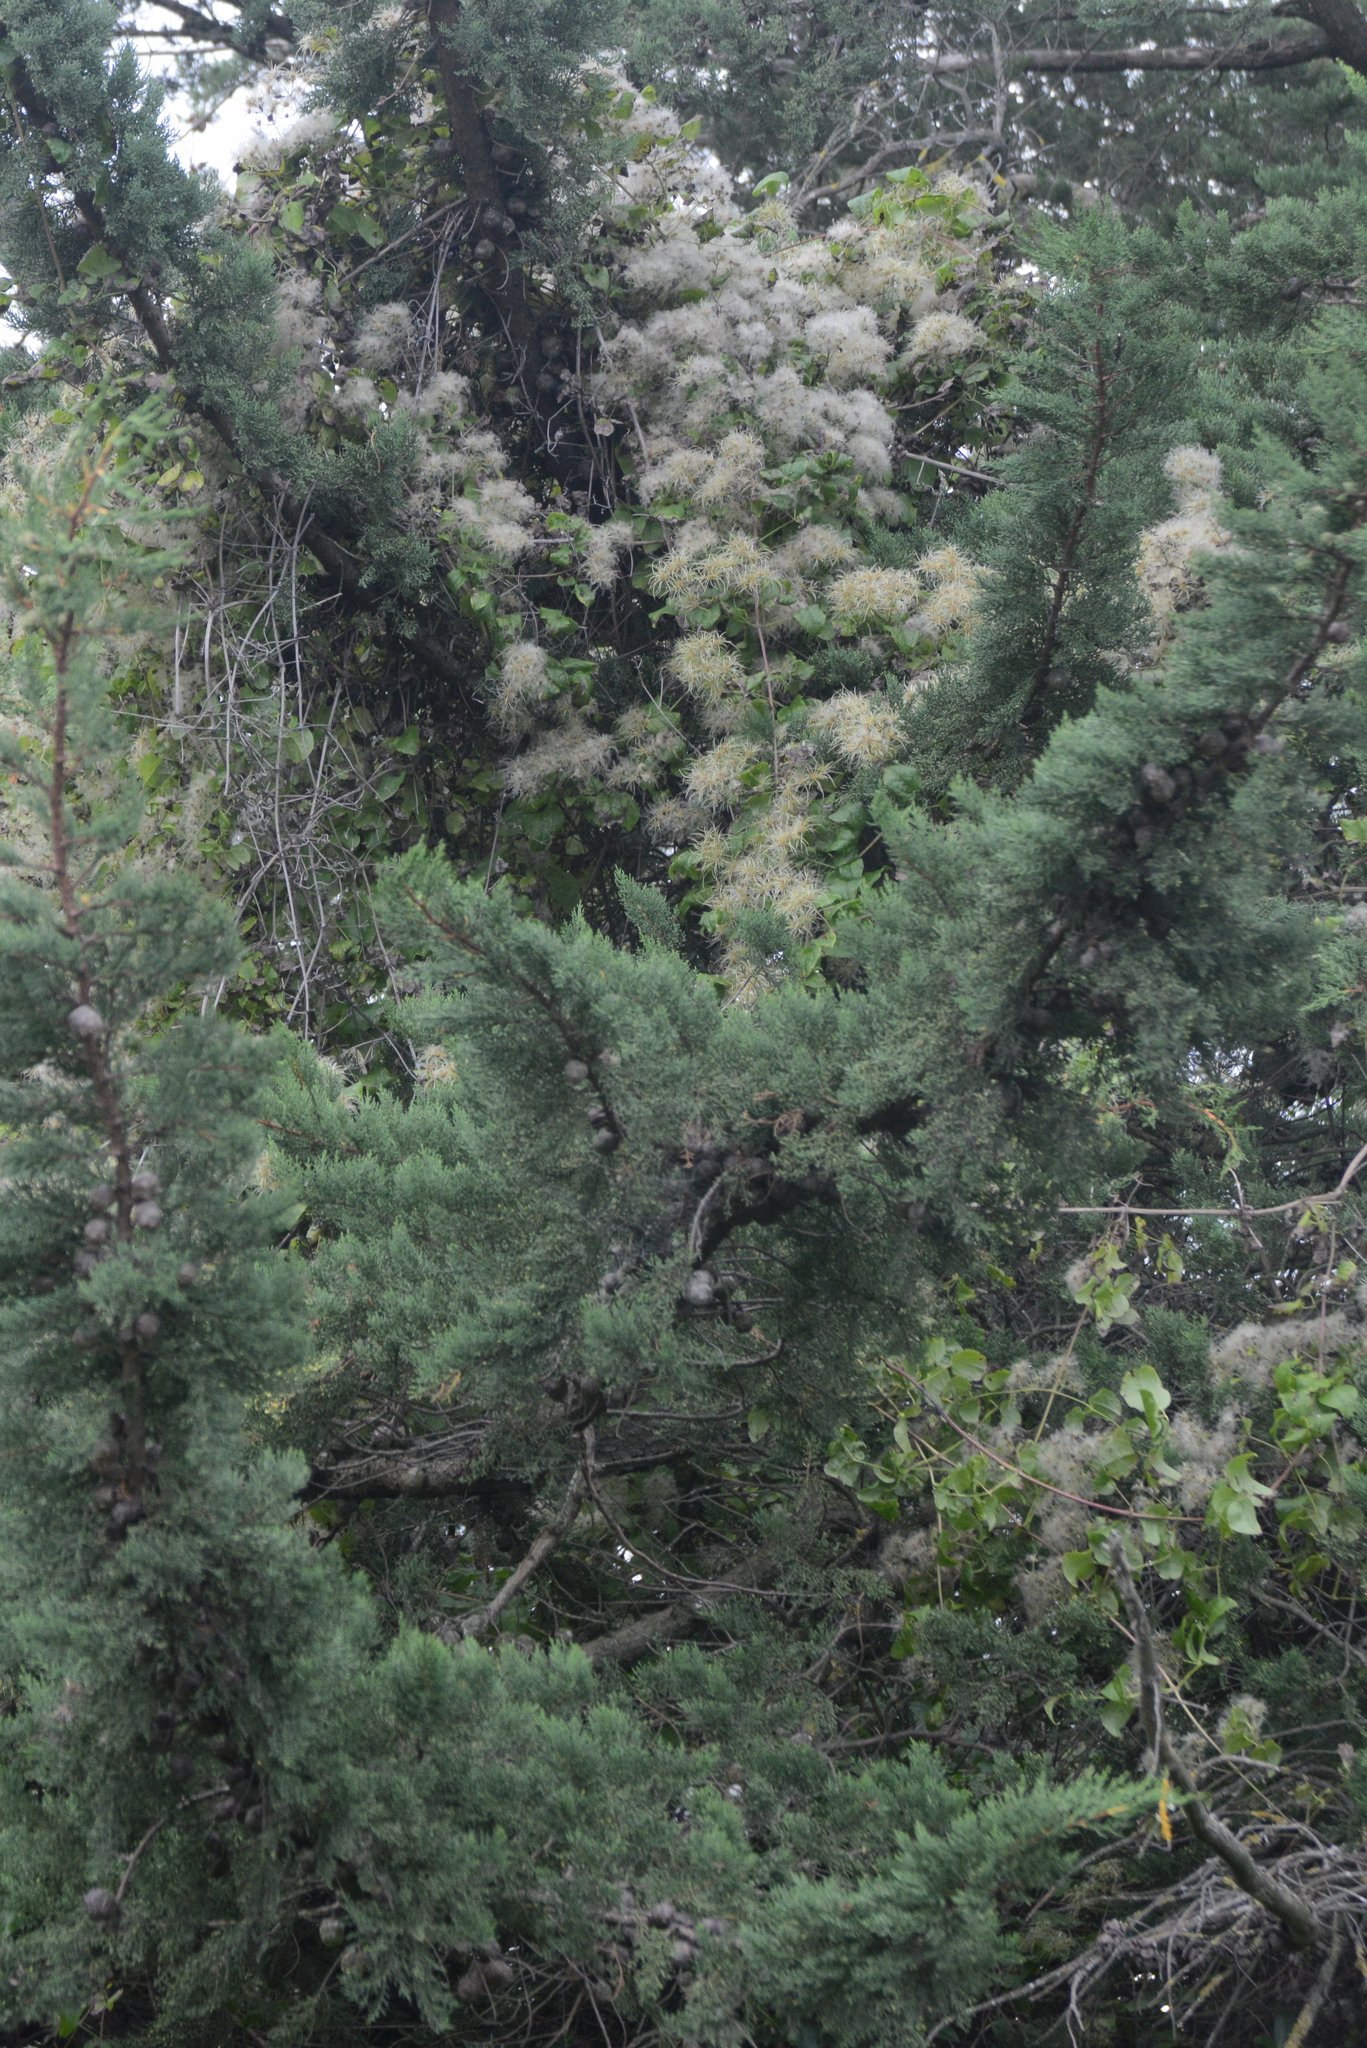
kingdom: Plantae
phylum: Tracheophyta
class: Magnoliopsida
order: Ranunculales
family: Ranunculaceae
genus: Clematis
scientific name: Clematis vitalba
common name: Evergreen clematis
